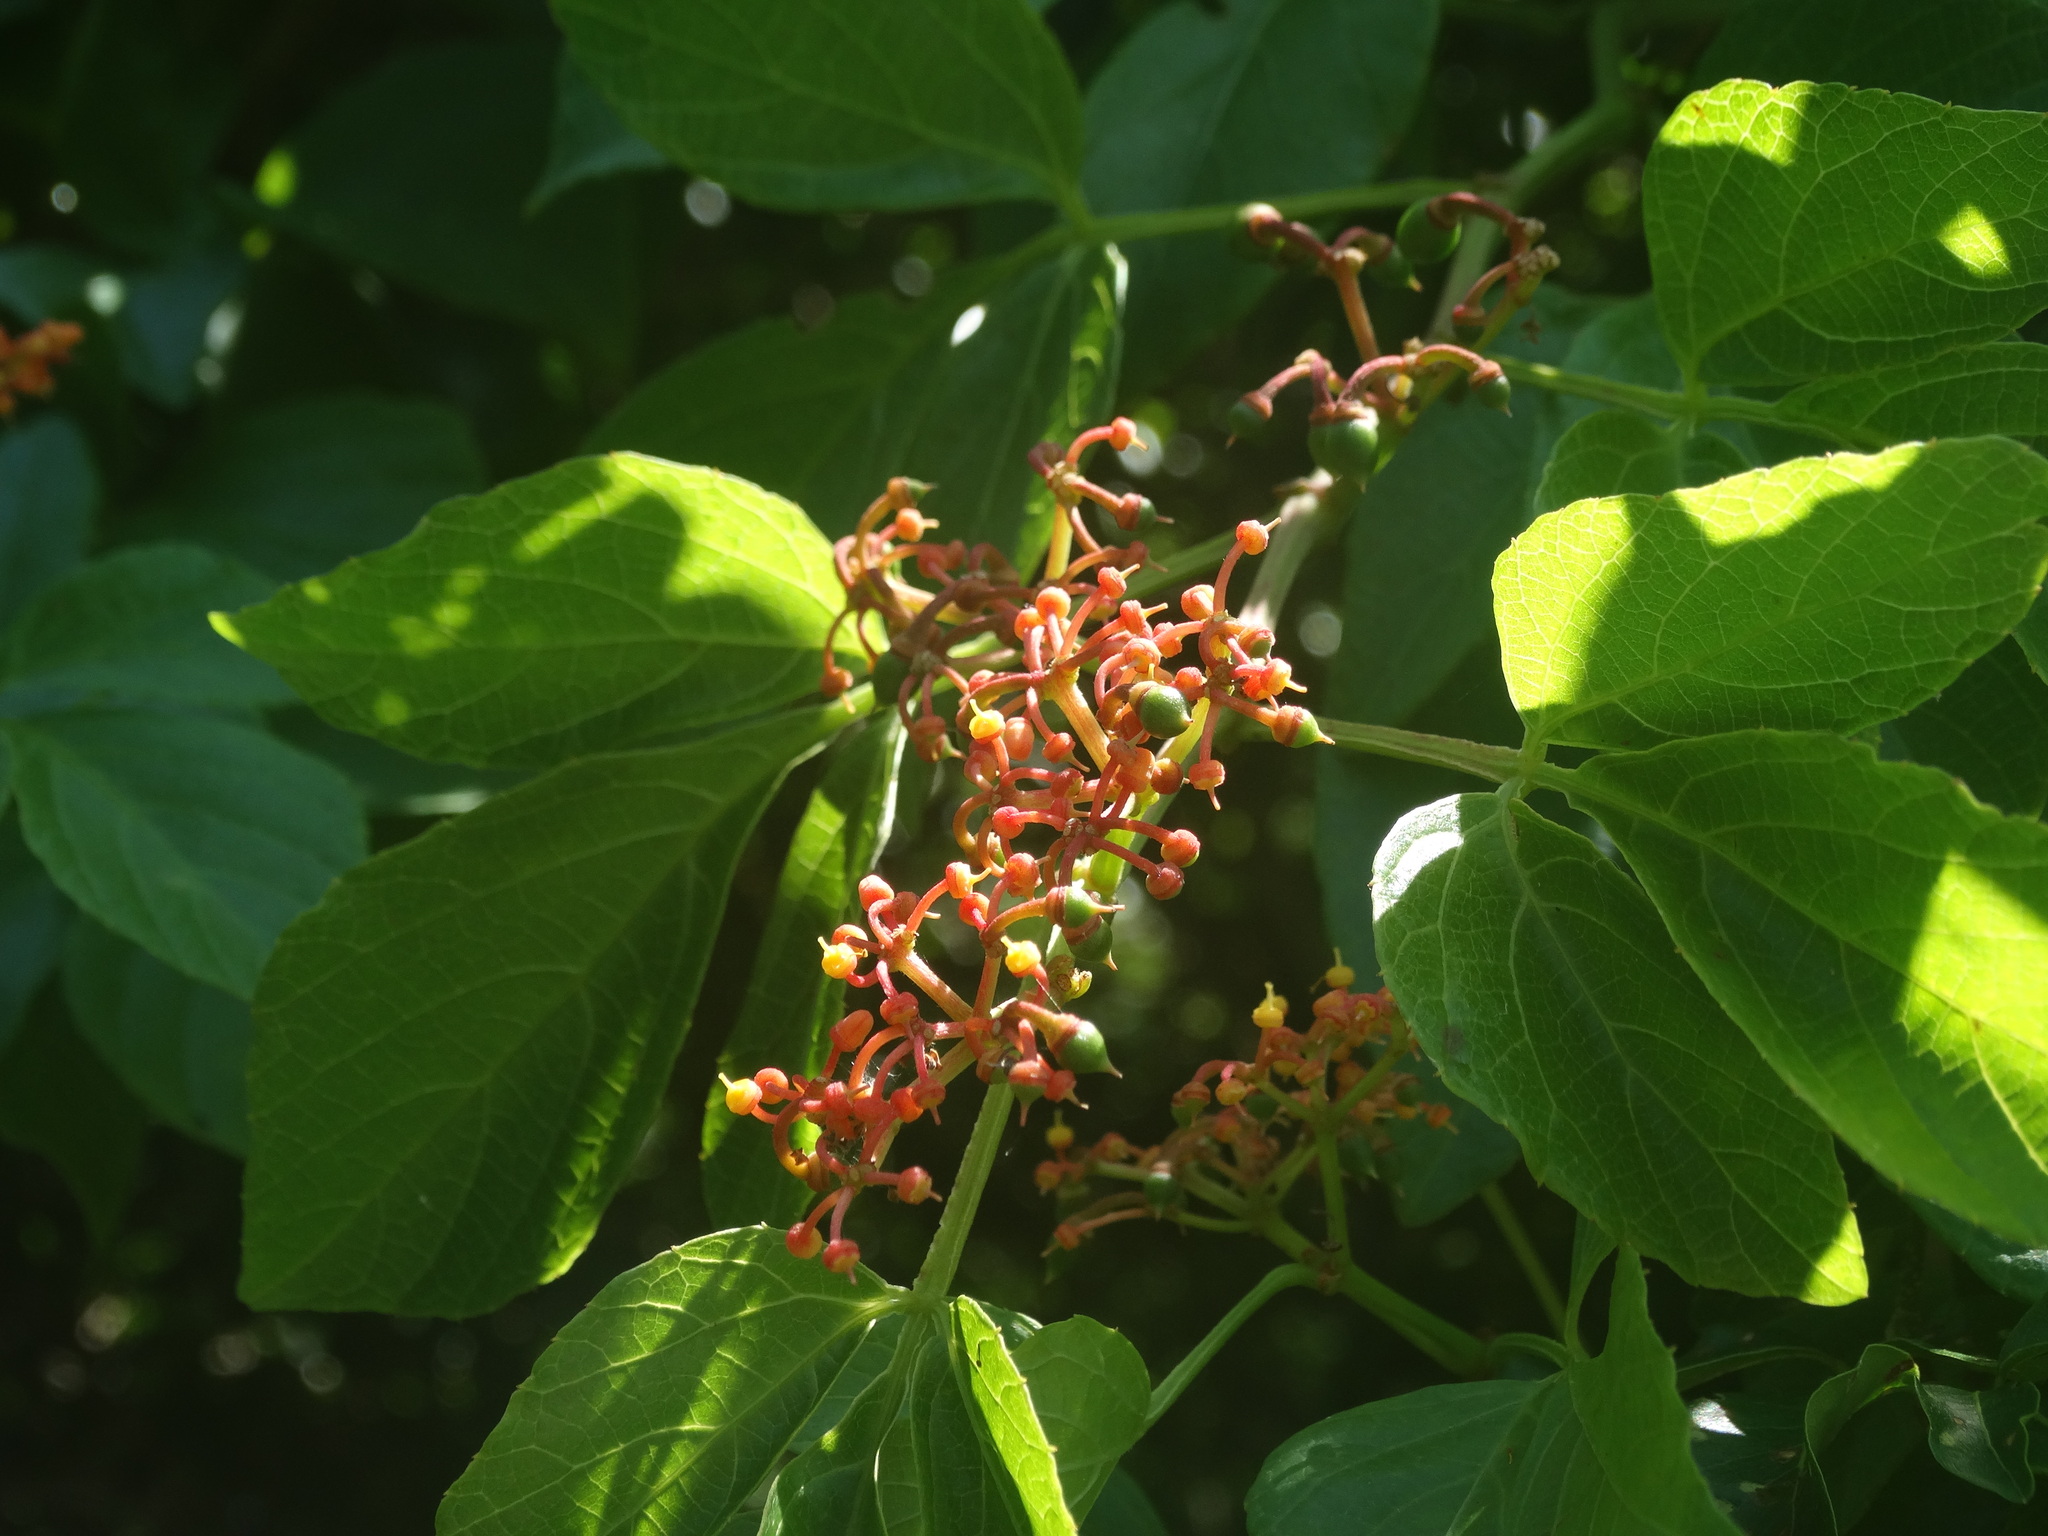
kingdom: Plantae
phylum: Tracheophyta
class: Magnoliopsida
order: Vitales
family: Vitaceae
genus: Cissus
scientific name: Cissus microcarpa
